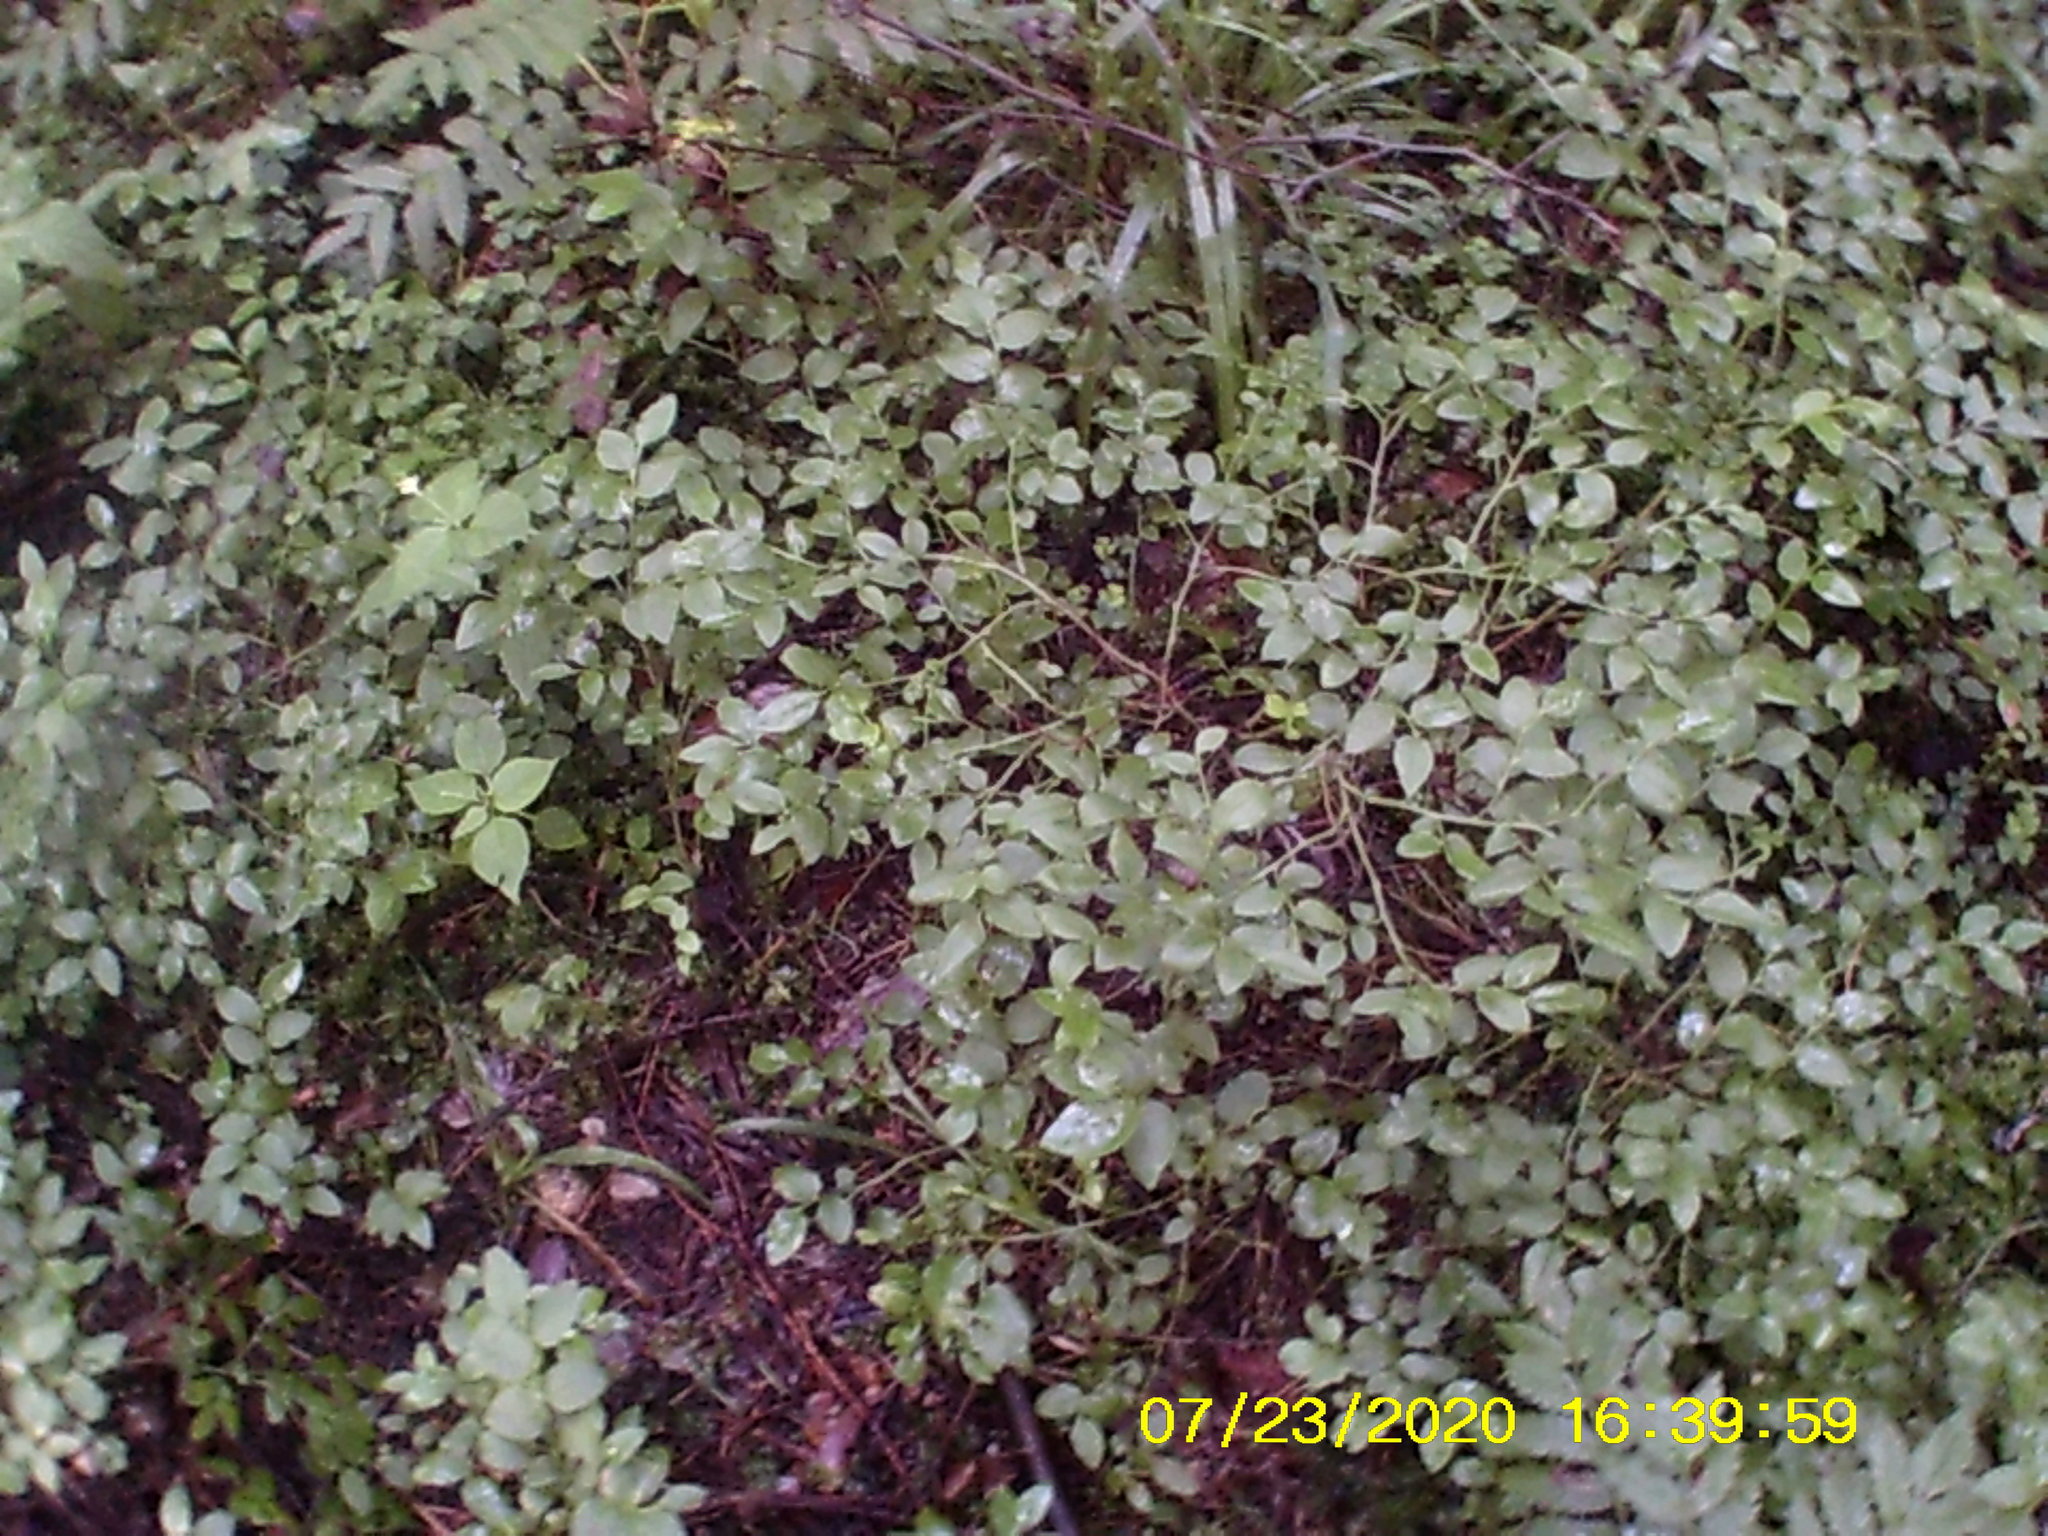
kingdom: Plantae
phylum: Tracheophyta
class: Magnoliopsida
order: Ericales
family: Ericaceae
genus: Vaccinium
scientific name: Vaccinium myrtillus
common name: Bilberry
